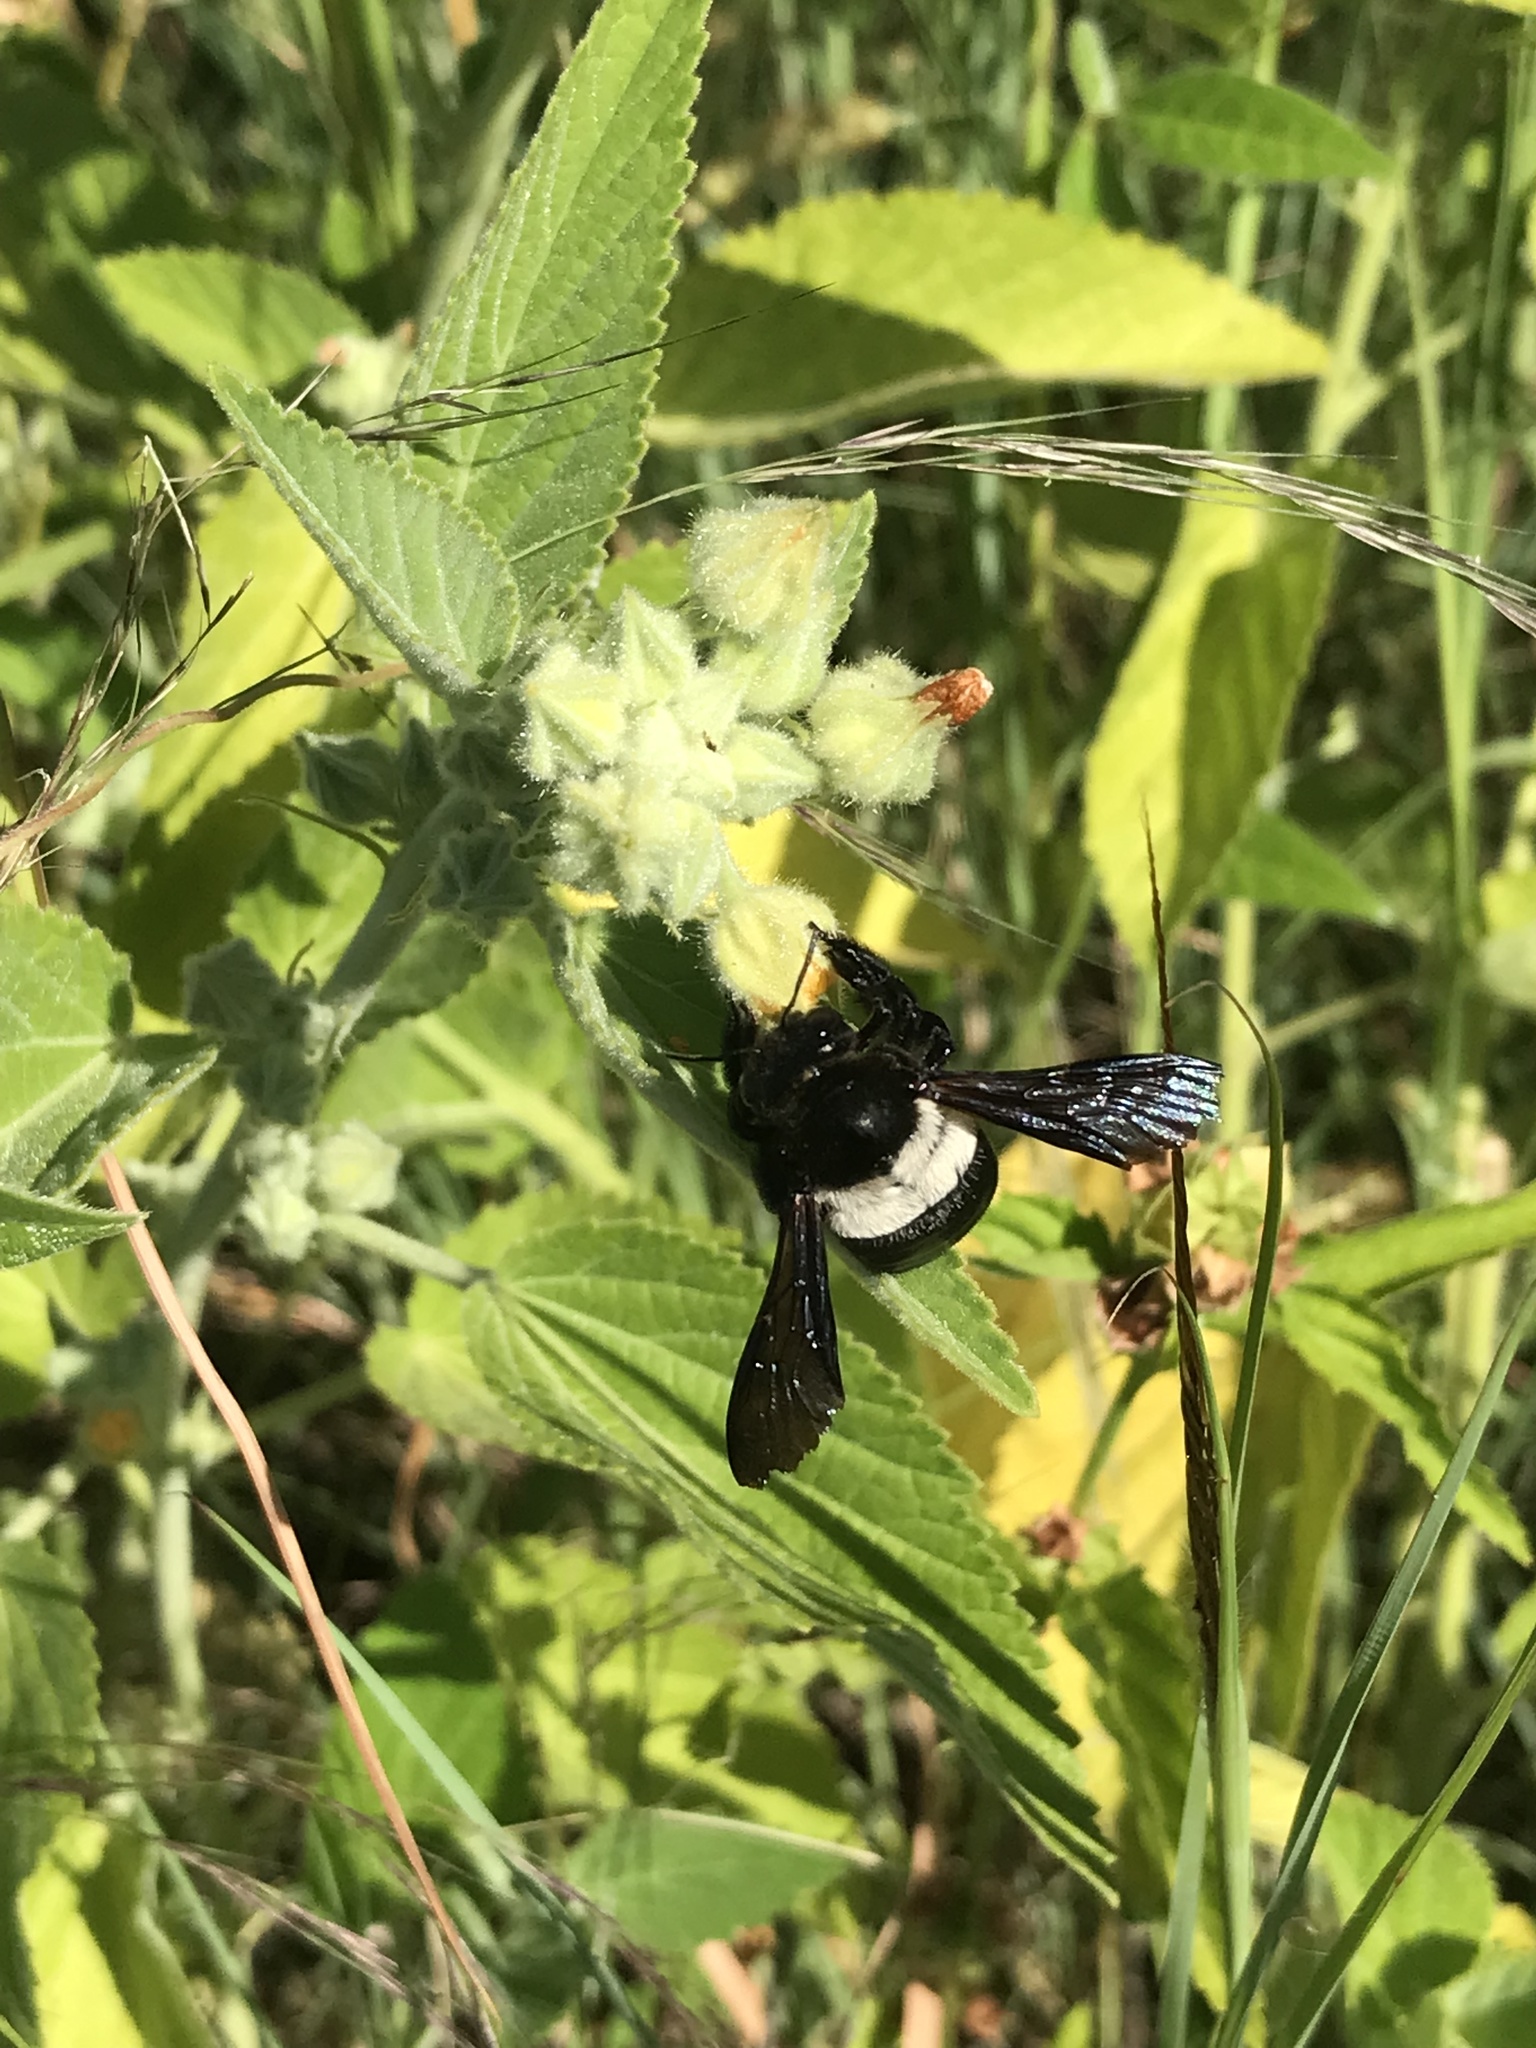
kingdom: Animalia
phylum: Arthropoda
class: Insecta
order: Hymenoptera
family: Apidae
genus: Xylocopa
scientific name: Xylocopa caffra
